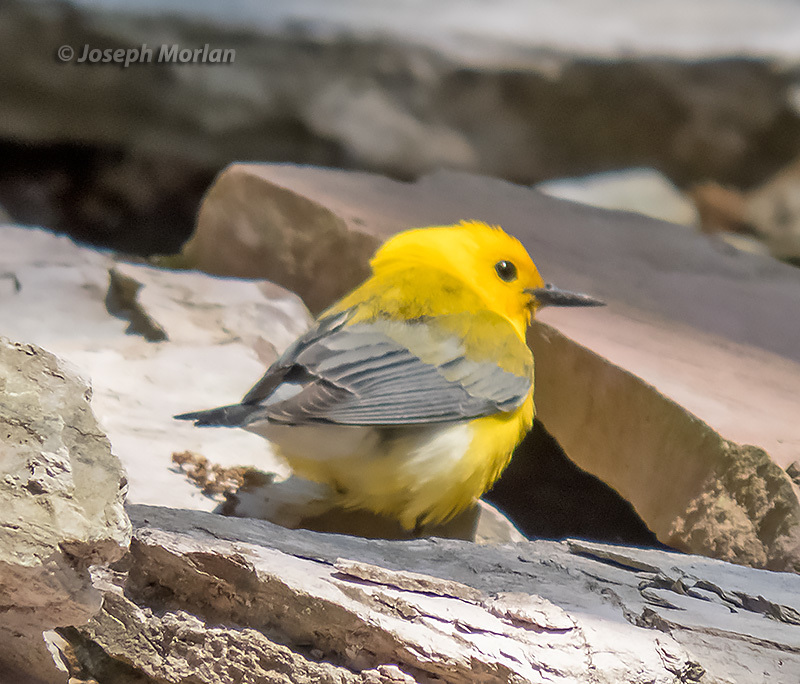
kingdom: Animalia
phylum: Chordata
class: Aves
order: Passeriformes
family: Parulidae
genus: Protonotaria
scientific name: Protonotaria citrea
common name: Prothonotary warbler
